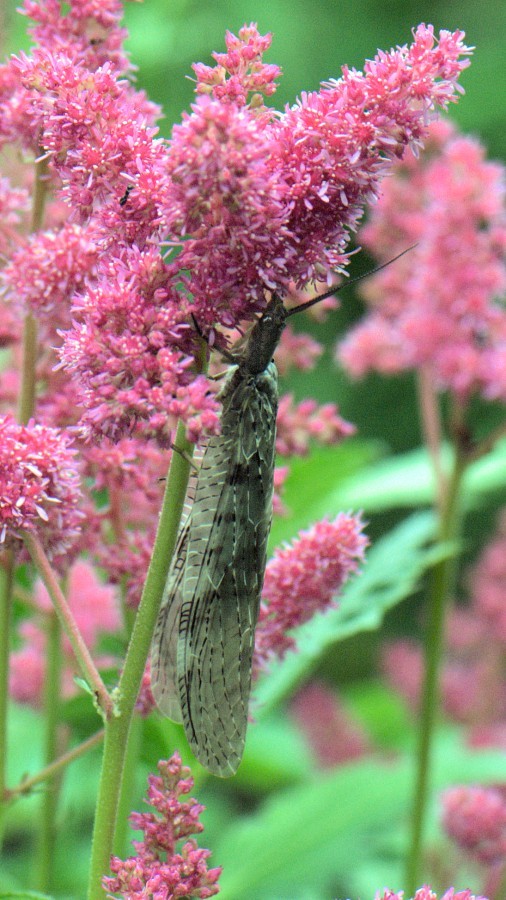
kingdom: Animalia
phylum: Arthropoda
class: Insecta
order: Megaloptera
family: Corydalidae
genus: Chauliodes
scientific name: Chauliodes pectinicornis
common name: Summer fishfly
